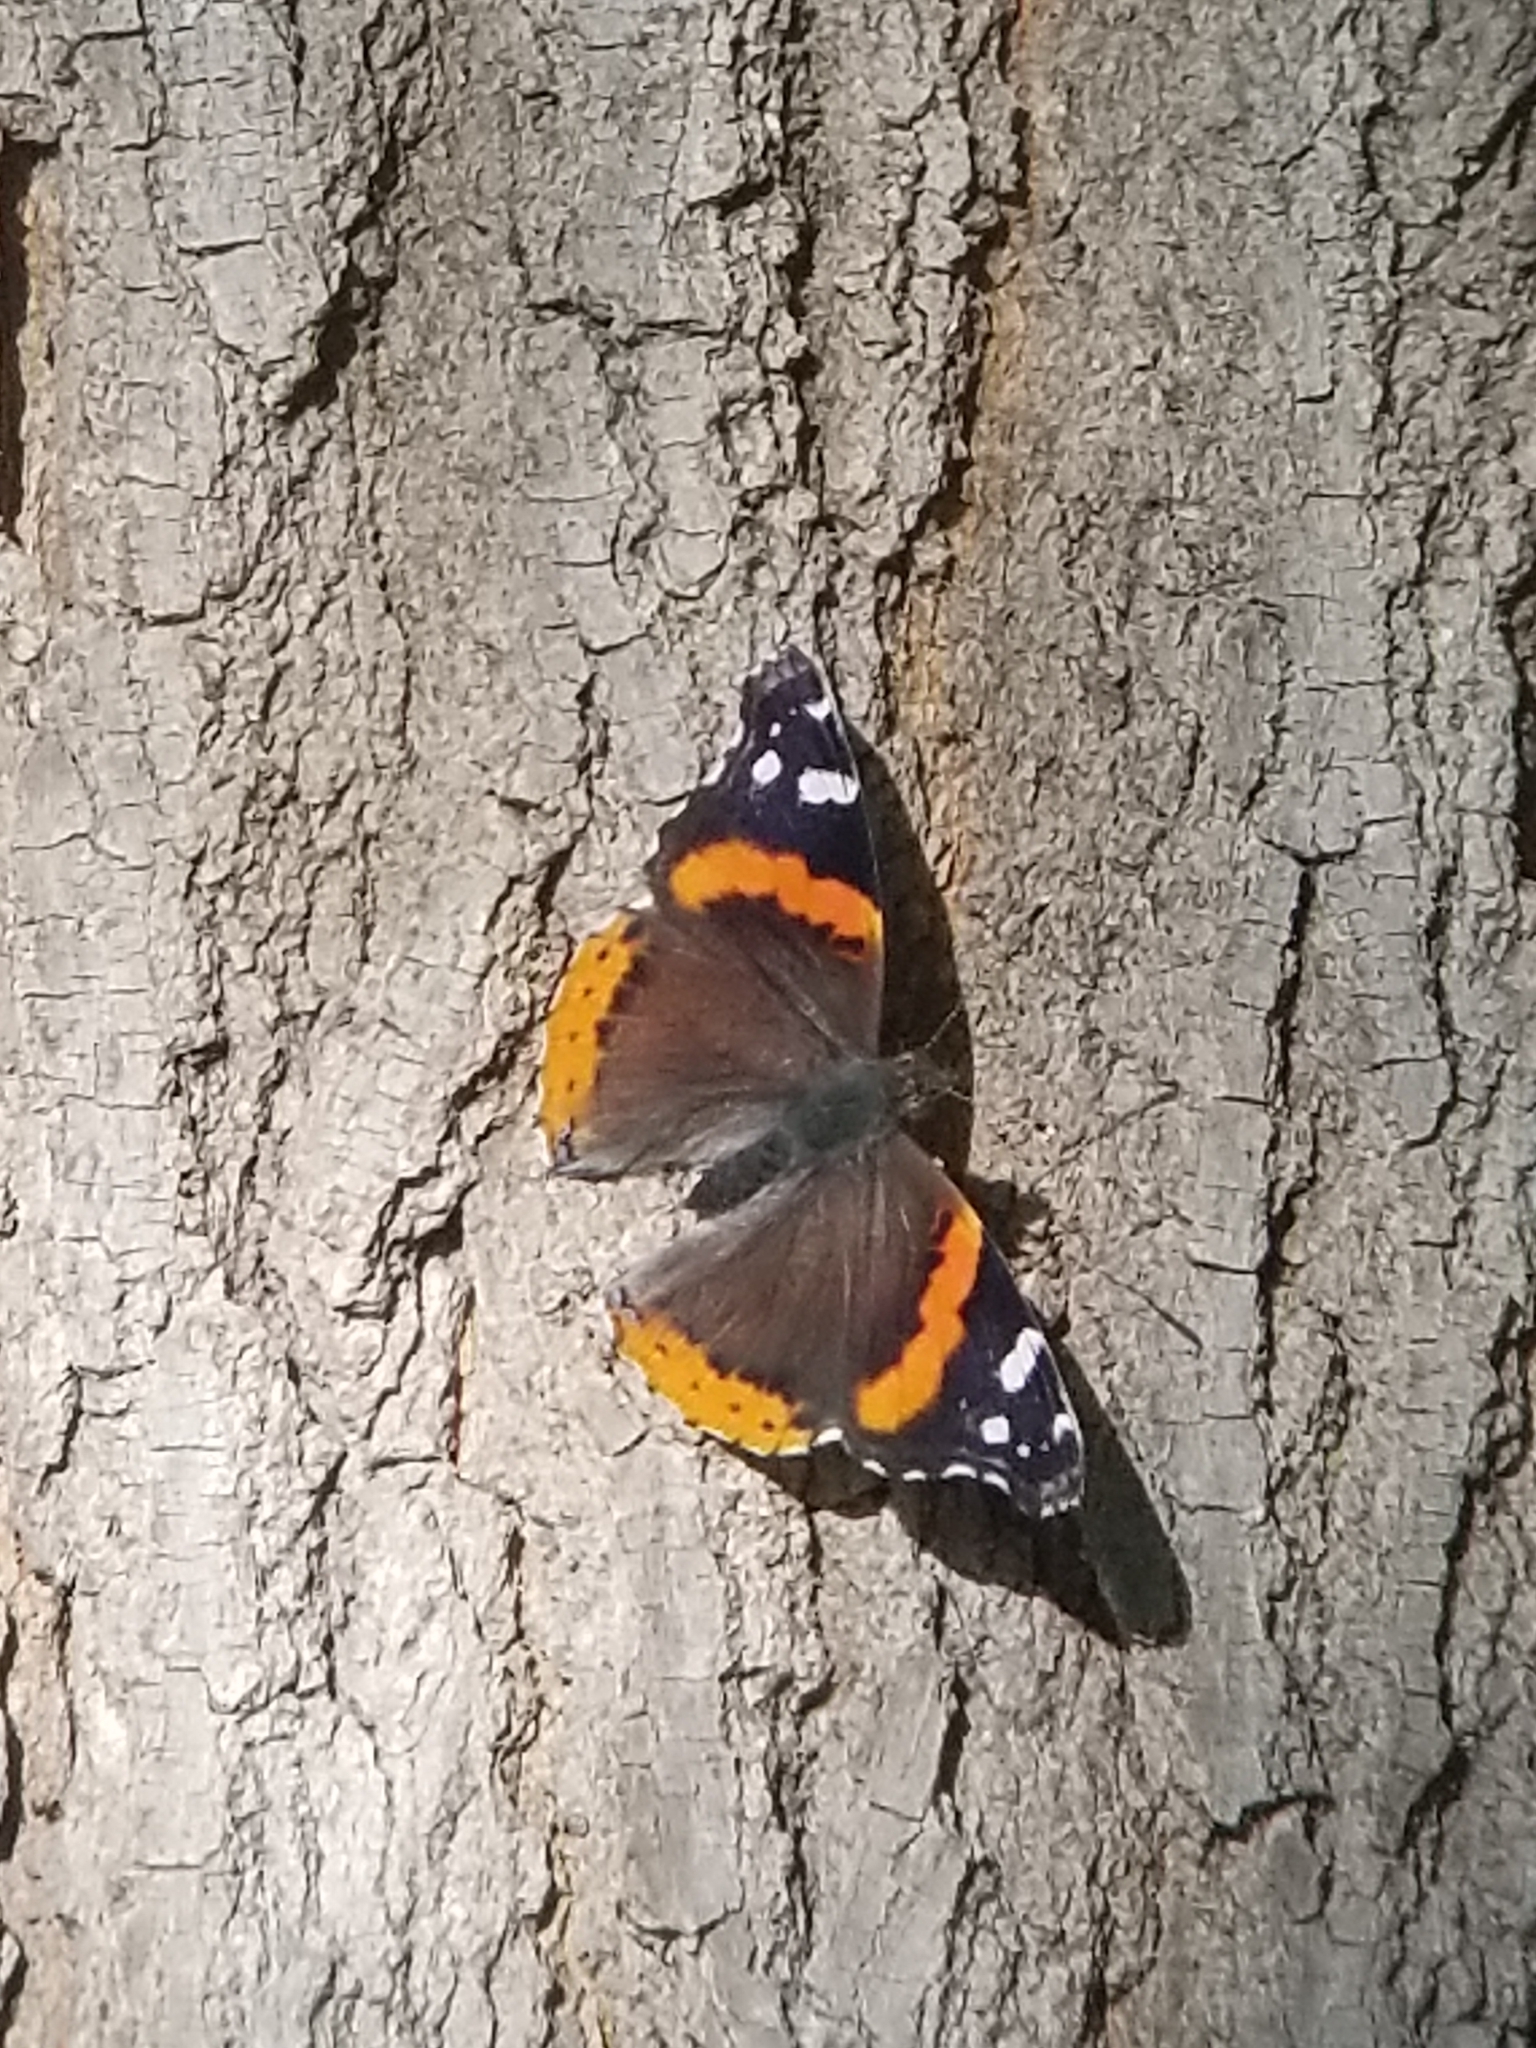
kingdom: Animalia
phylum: Arthropoda
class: Insecta
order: Lepidoptera
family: Nymphalidae
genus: Vanessa
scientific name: Vanessa atalanta
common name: Red admiral
